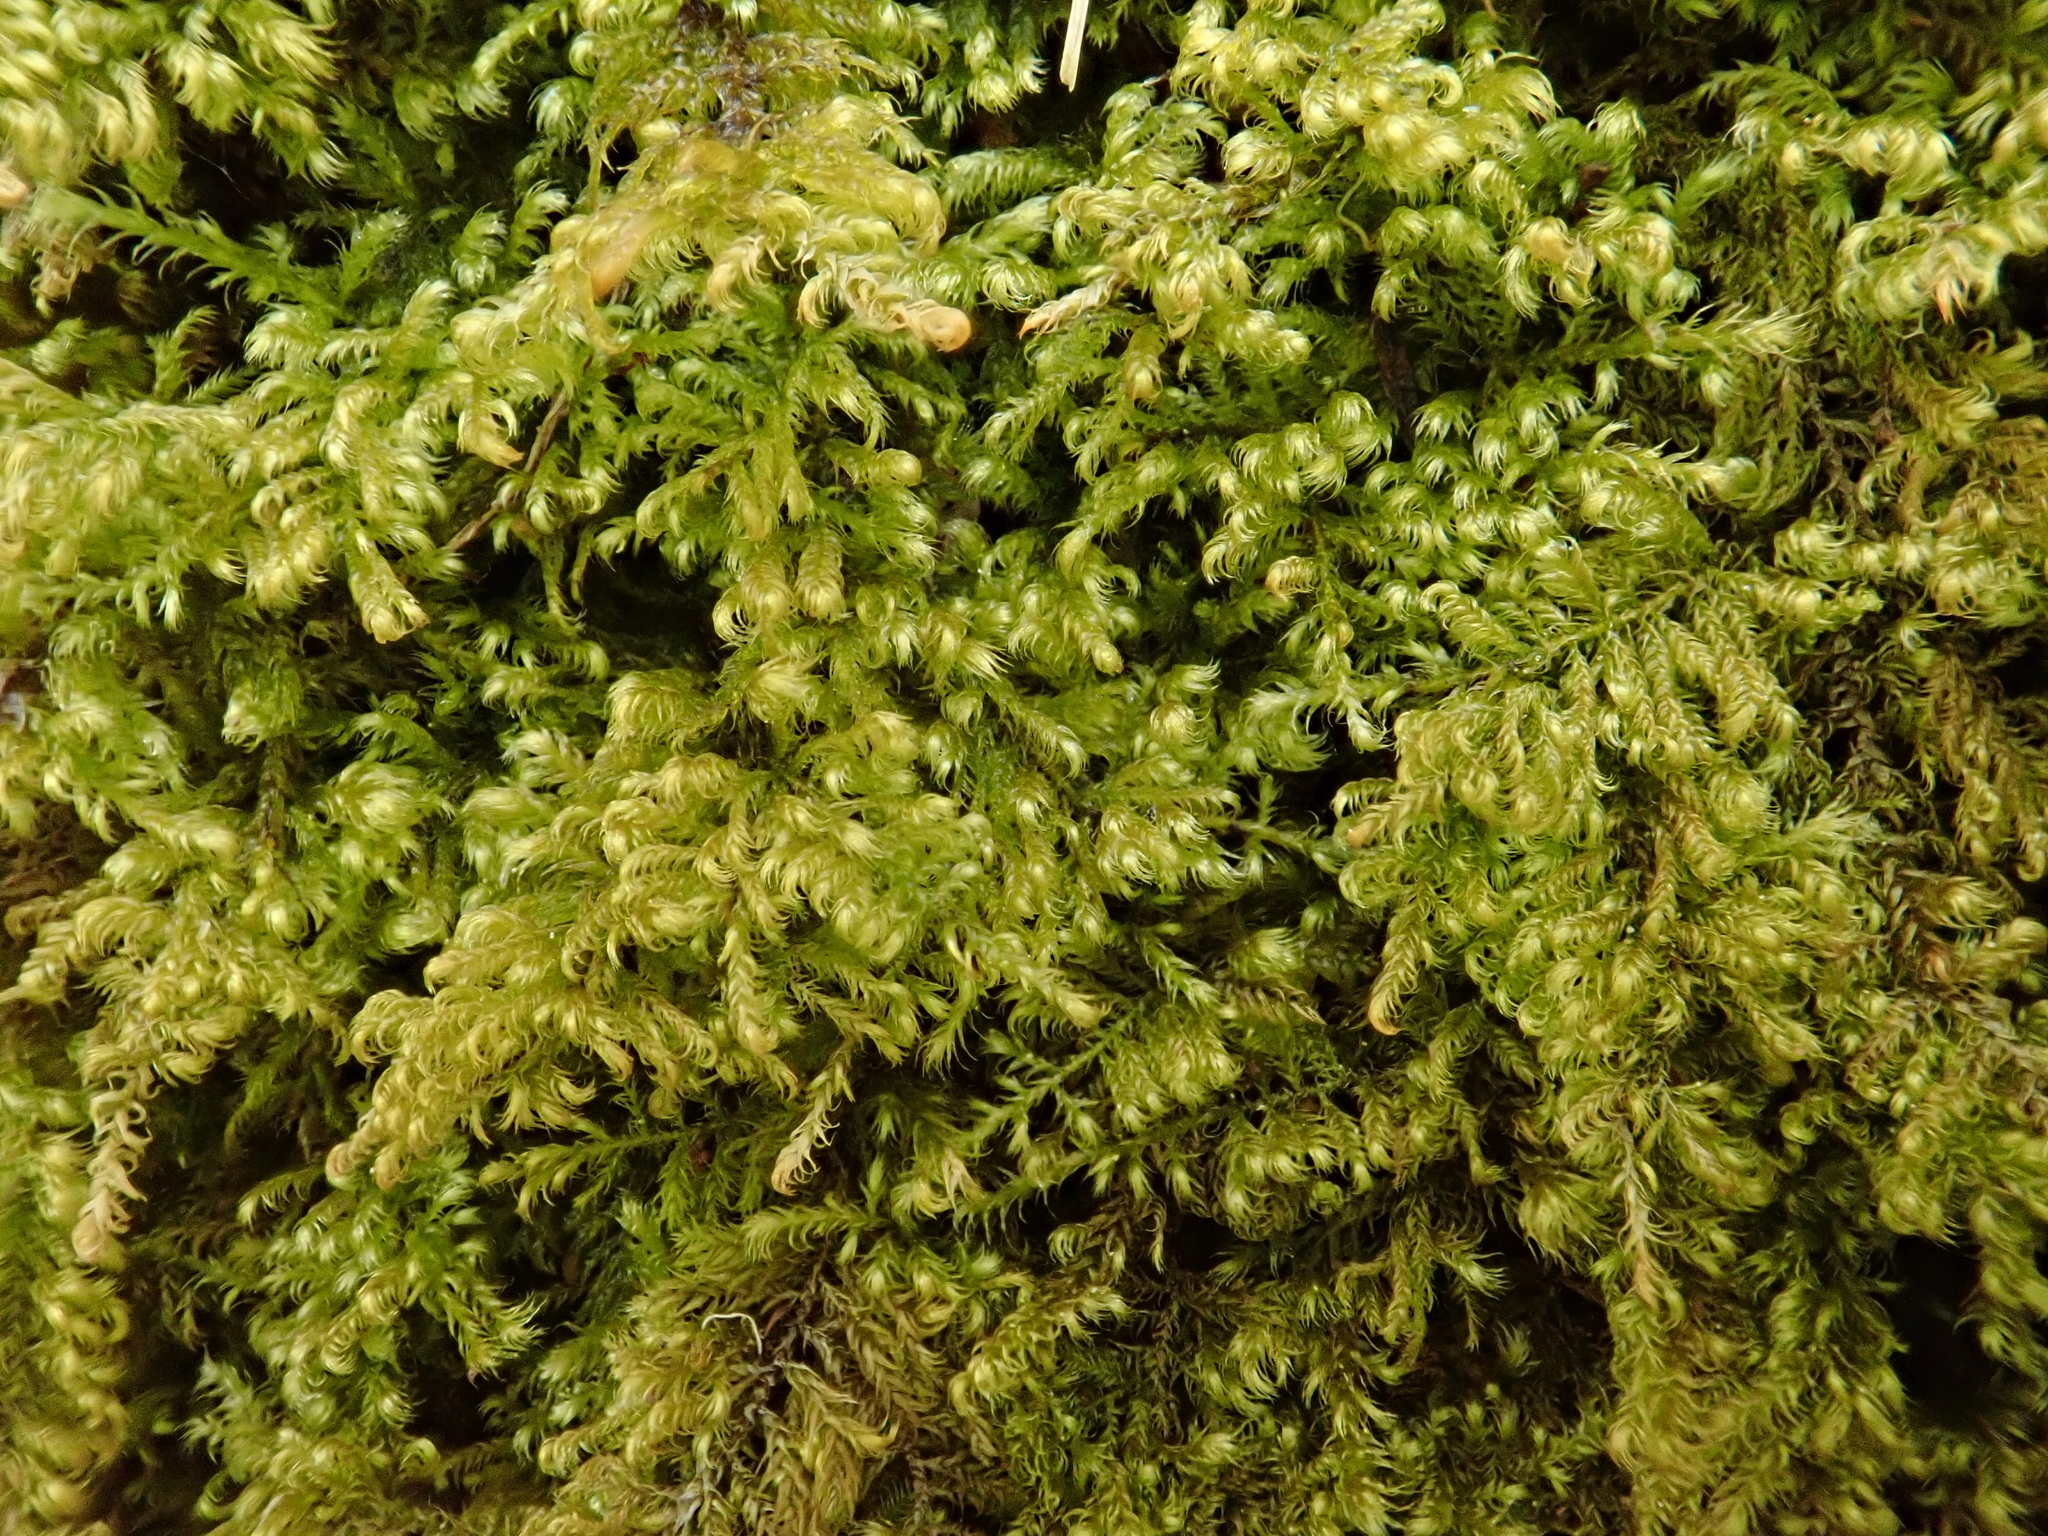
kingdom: Plantae
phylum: Bryophyta
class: Bryopsida
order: Hypnales
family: Myuriaceae
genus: Ctenidium
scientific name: Ctenidium molluscum
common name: Chalk comb-moss
